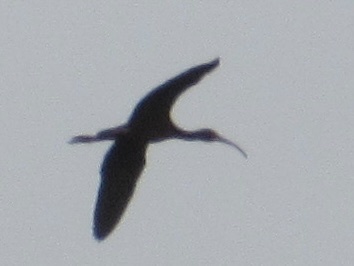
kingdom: Animalia
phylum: Chordata
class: Aves
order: Pelecaniformes
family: Threskiornithidae
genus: Plegadis
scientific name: Plegadis chihi
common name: White-faced ibis
